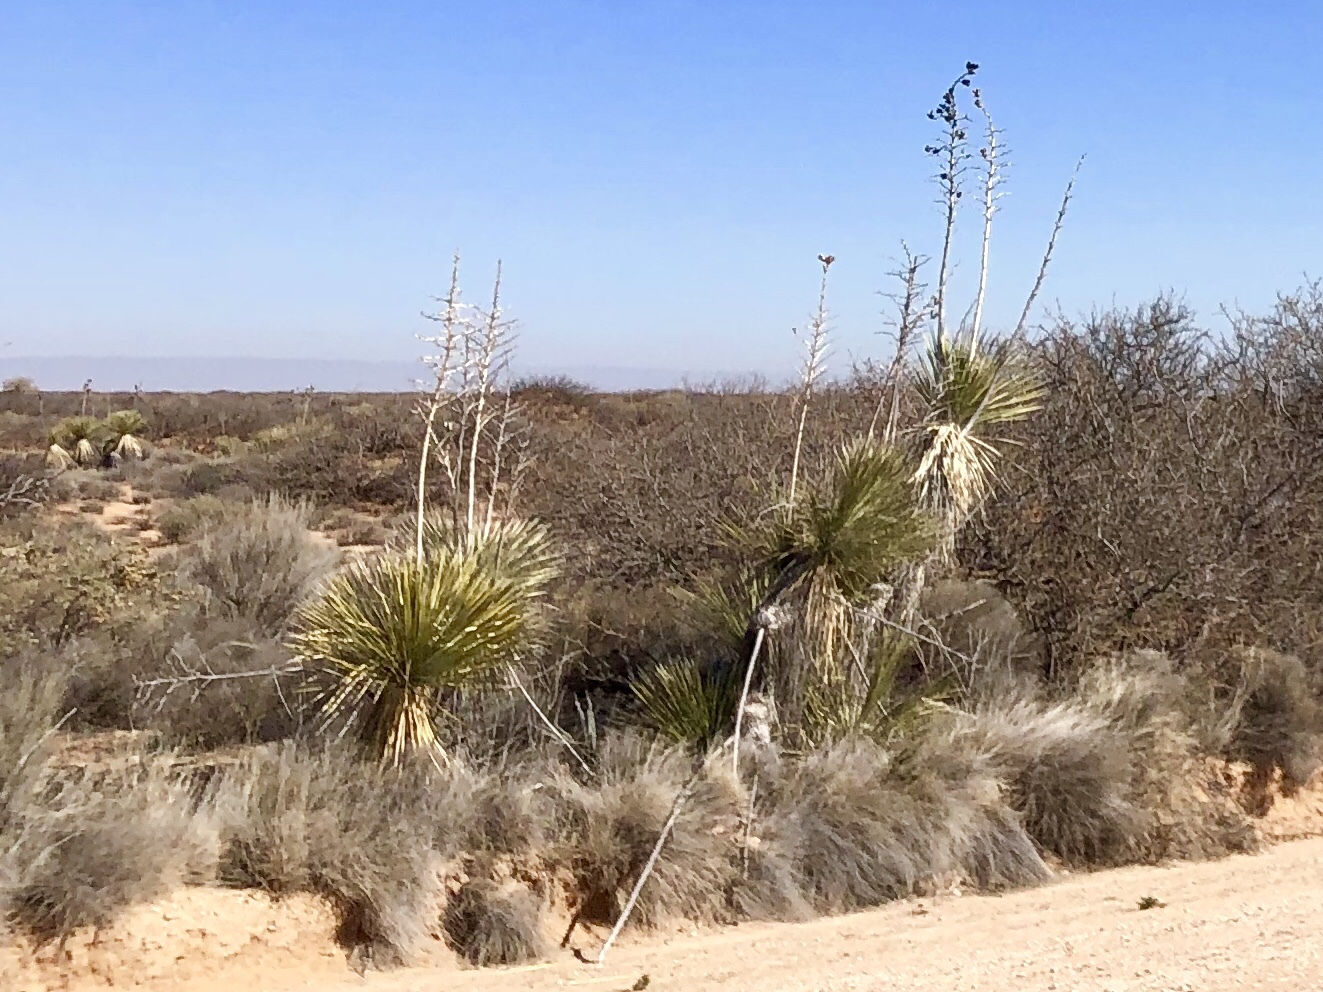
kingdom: Plantae
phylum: Tracheophyta
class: Liliopsida
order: Asparagales
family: Asparagaceae
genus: Yucca
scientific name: Yucca elata
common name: Palmella
